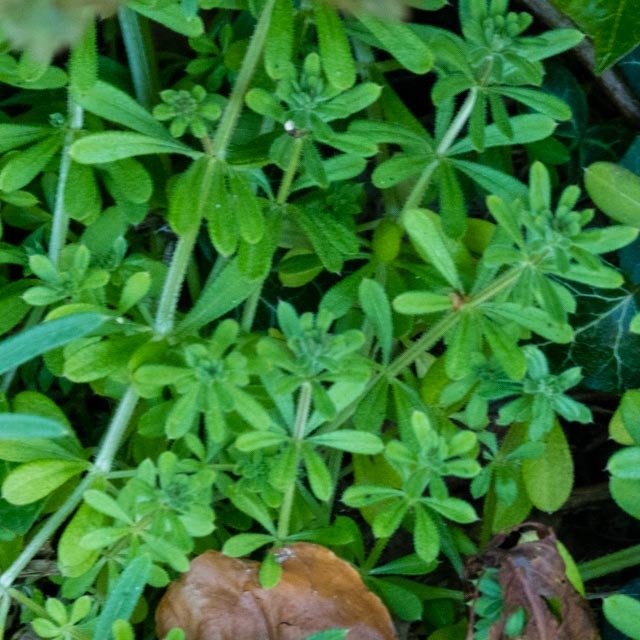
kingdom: Plantae
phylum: Tracheophyta
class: Magnoliopsida
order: Gentianales
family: Rubiaceae
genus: Galium
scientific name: Galium aparine
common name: Cleavers
